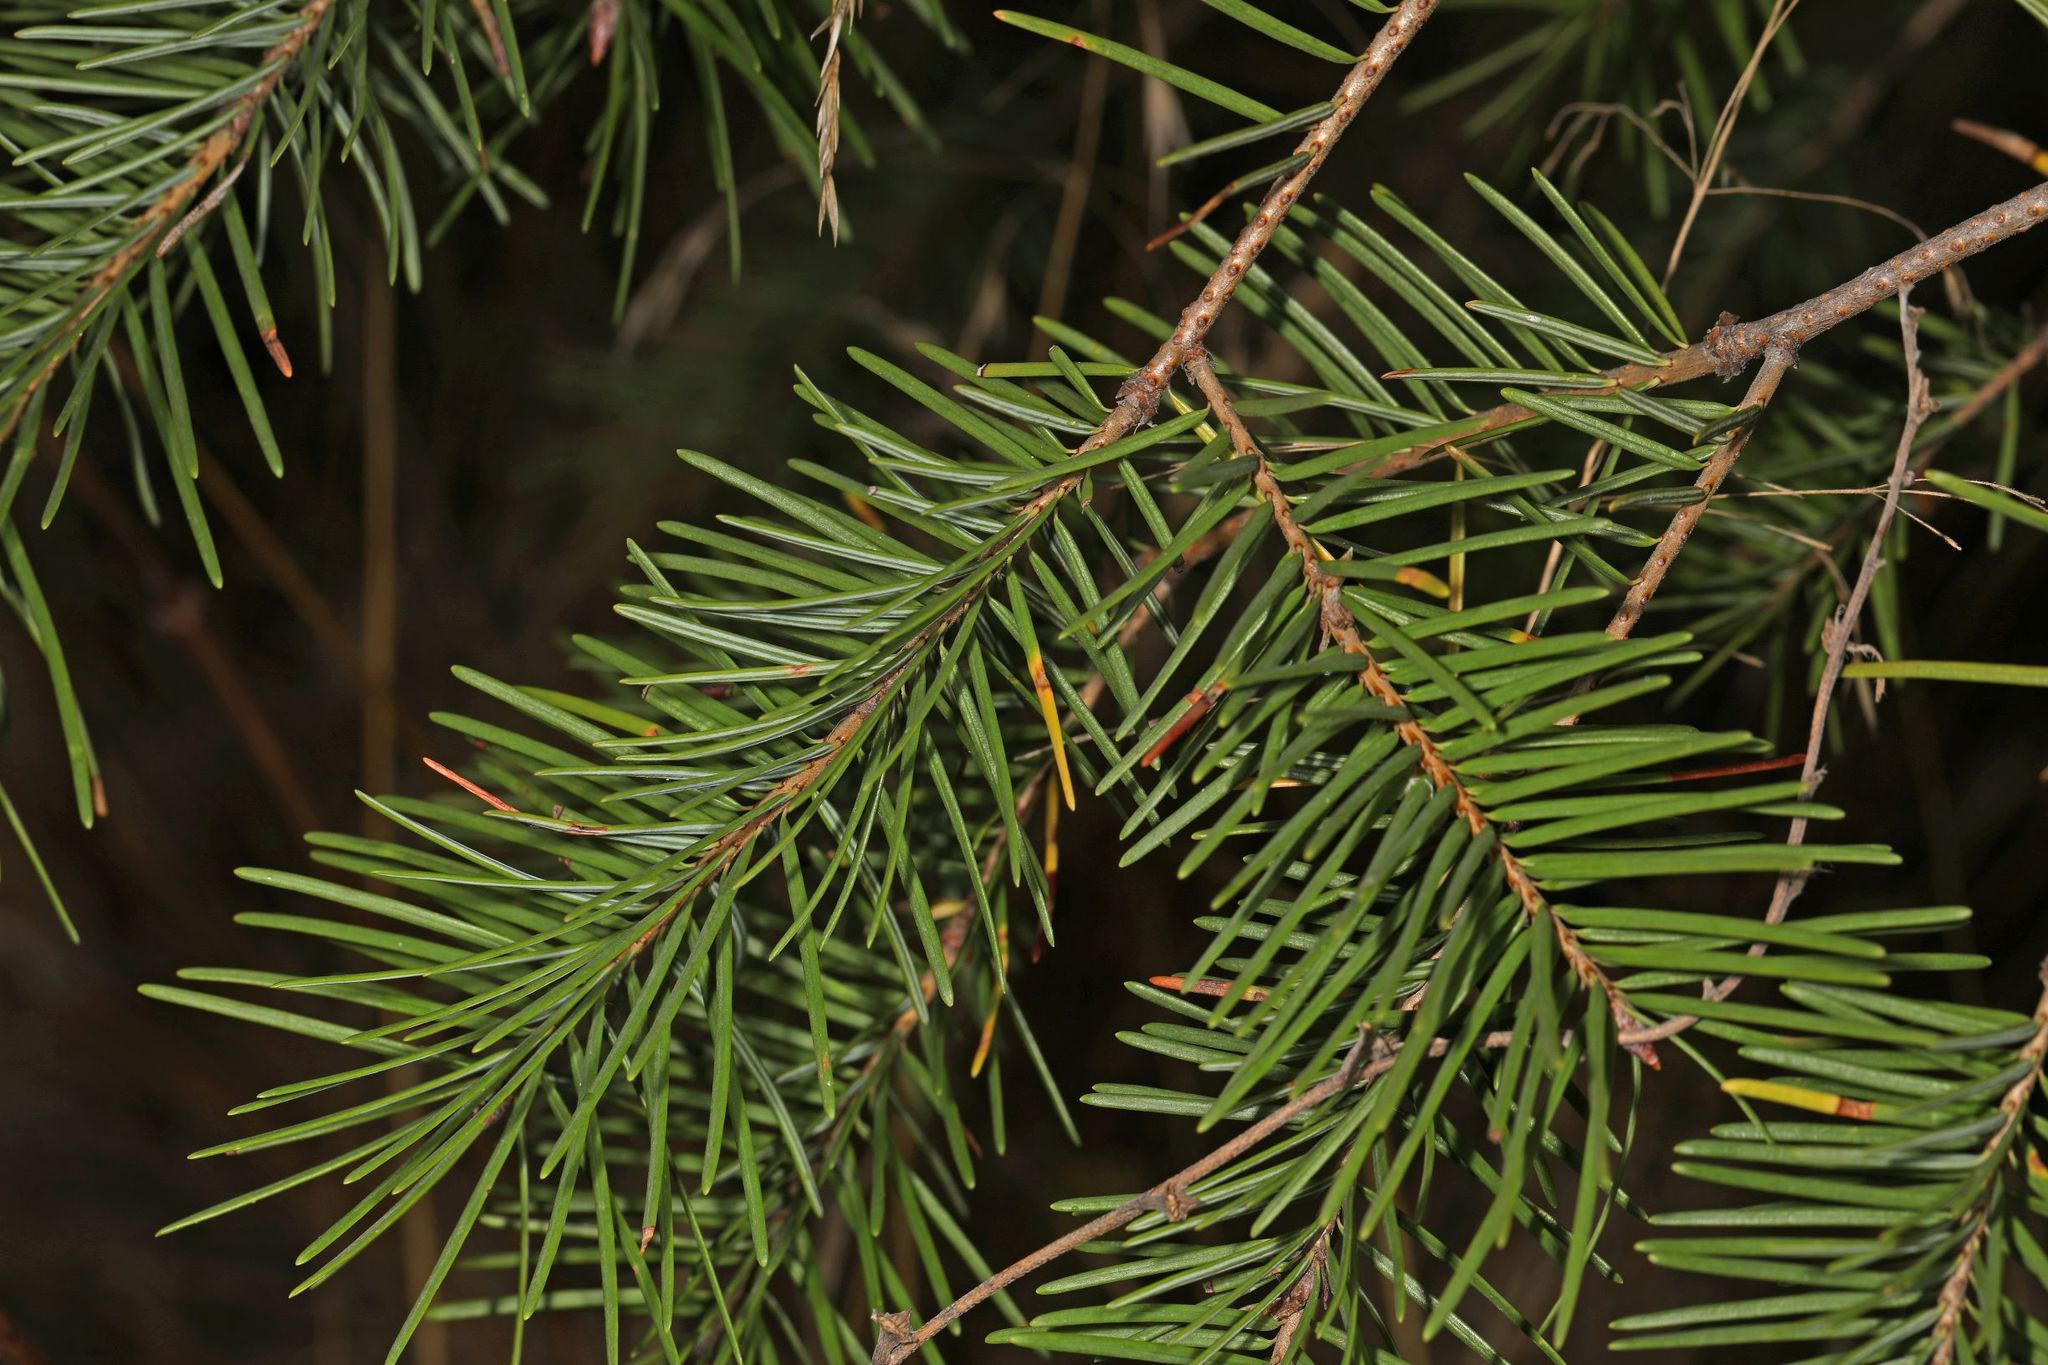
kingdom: Plantae
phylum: Tracheophyta
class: Pinopsida
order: Pinales
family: Pinaceae
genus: Pseudotsuga
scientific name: Pseudotsuga menziesii
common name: Douglas fir
